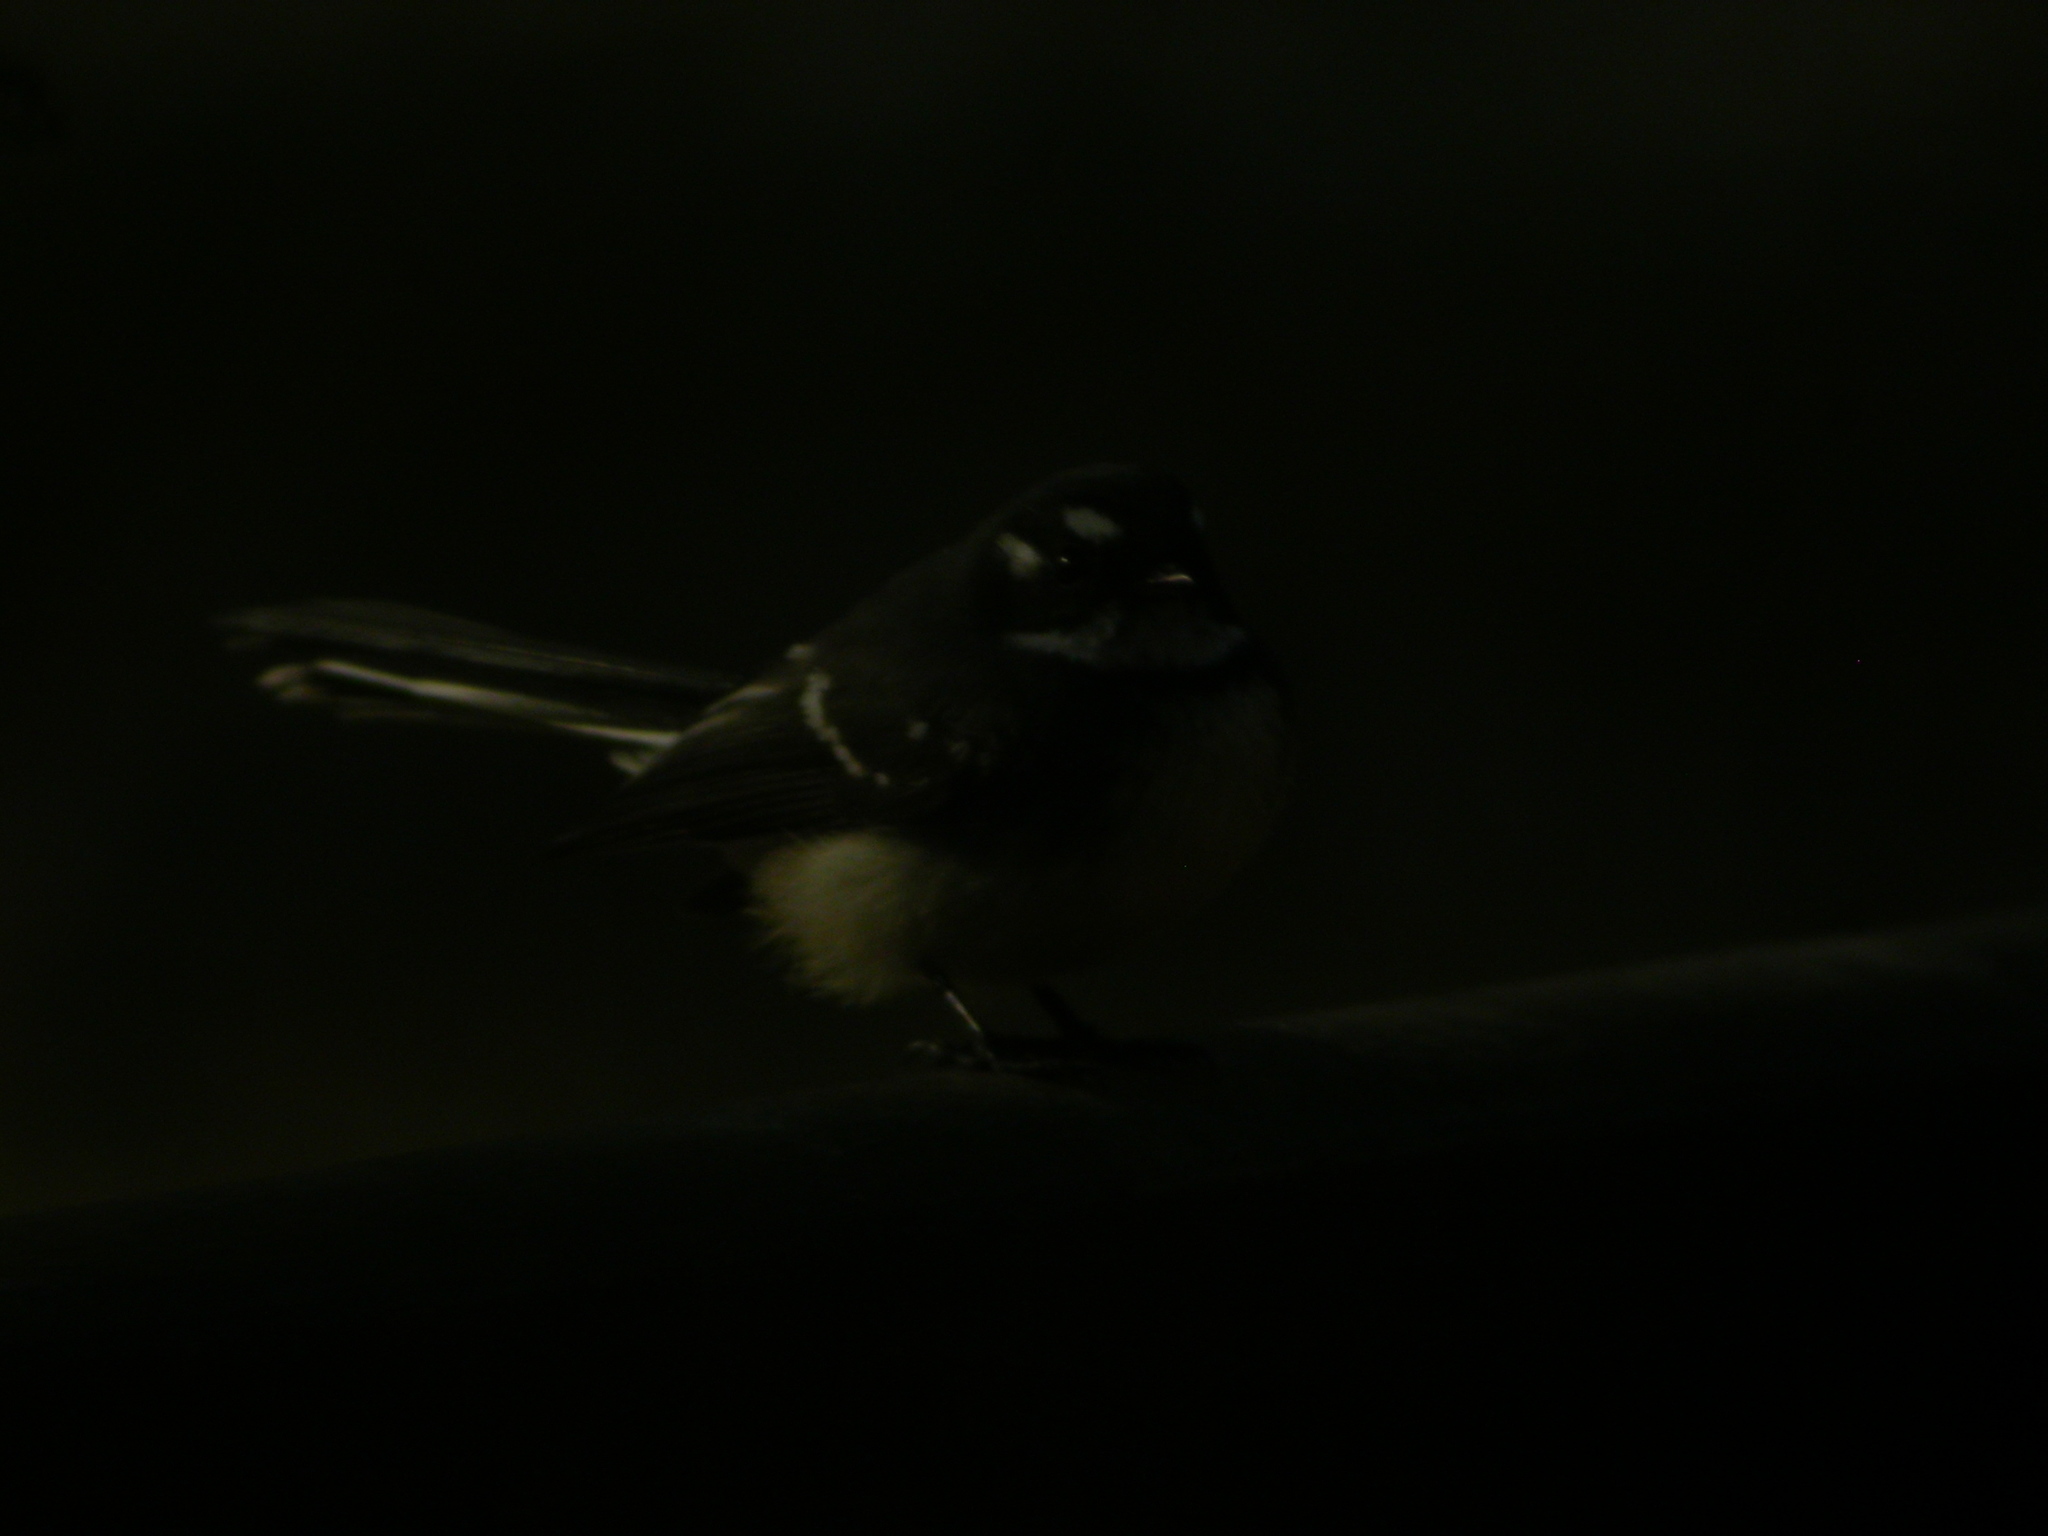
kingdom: Animalia
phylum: Chordata
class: Aves
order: Passeriformes
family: Rhipiduridae
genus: Rhipidura
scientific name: Rhipidura albiscapa
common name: Grey fantail
